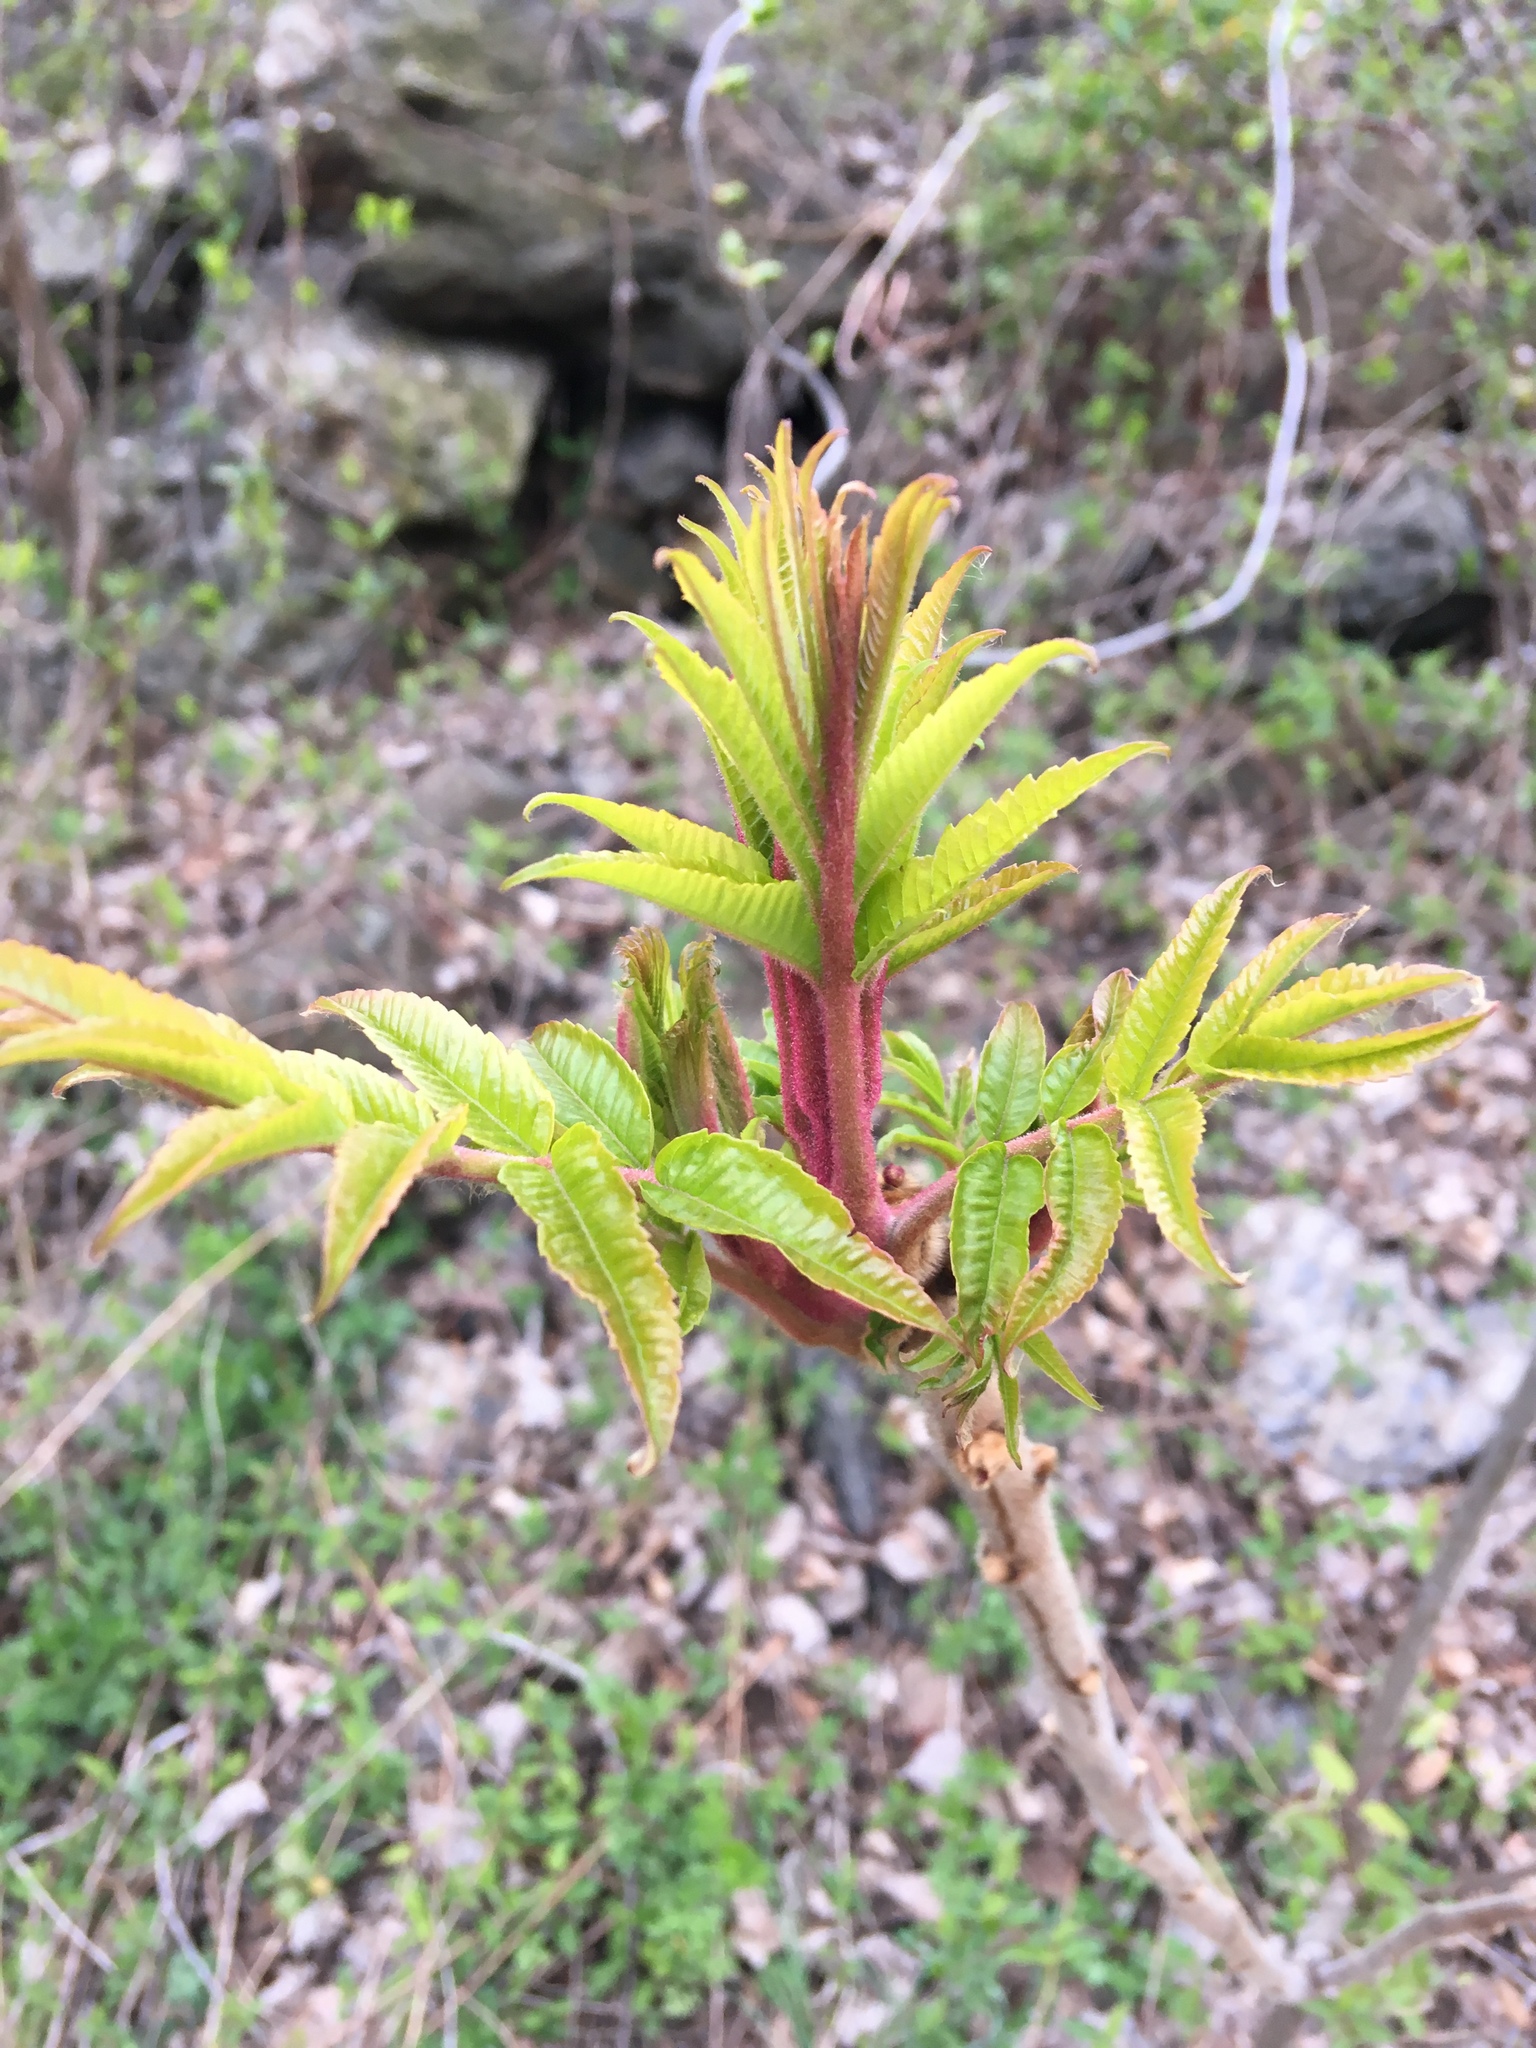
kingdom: Plantae
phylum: Tracheophyta
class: Magnoliopsida
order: Sapindales
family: Anacardiaceae
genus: Rhus
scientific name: Rhus typhina
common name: Staghorn sumac
